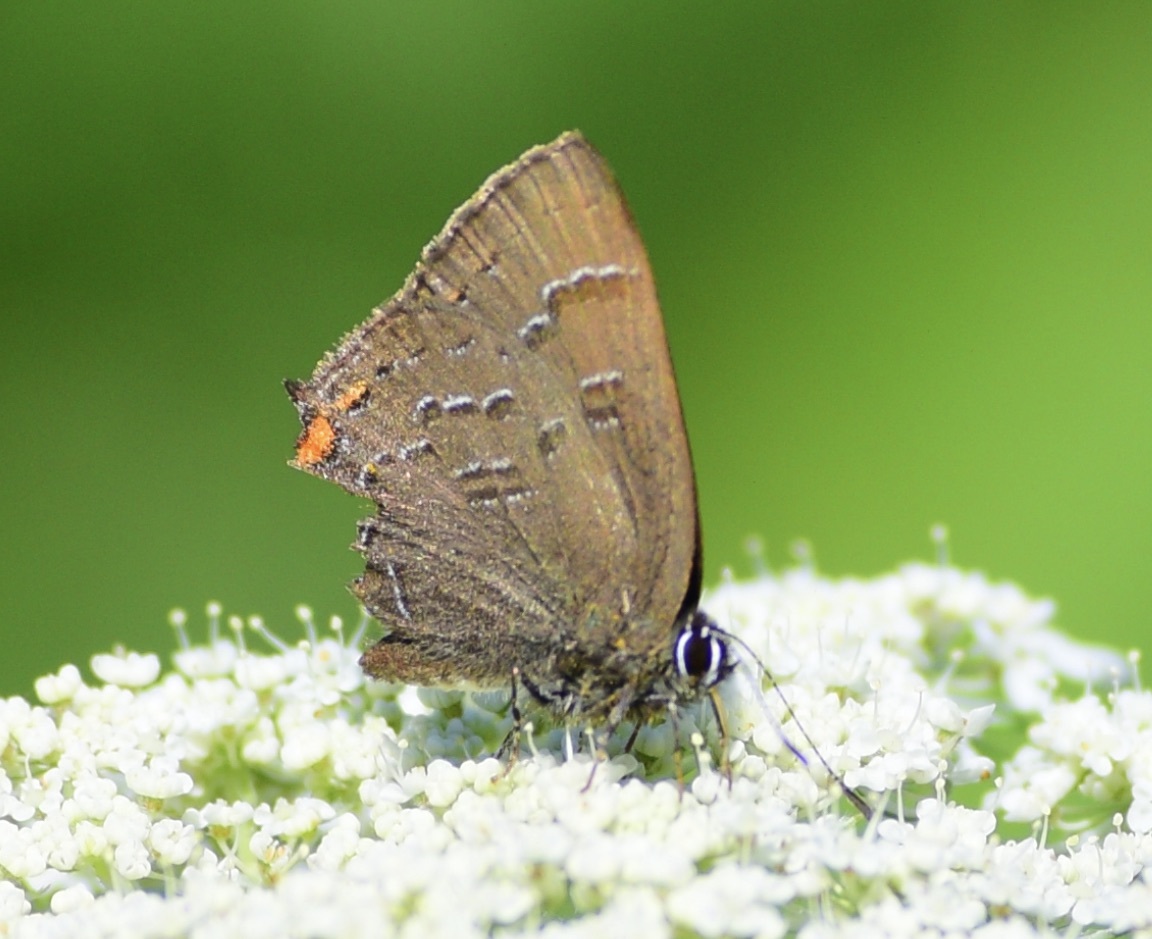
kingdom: Animalia
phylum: Arthropoda
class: Insecta
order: Lepidoptera
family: Lycaenidae
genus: Satyrium
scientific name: Satyrium calanus
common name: Banded hairstreak
